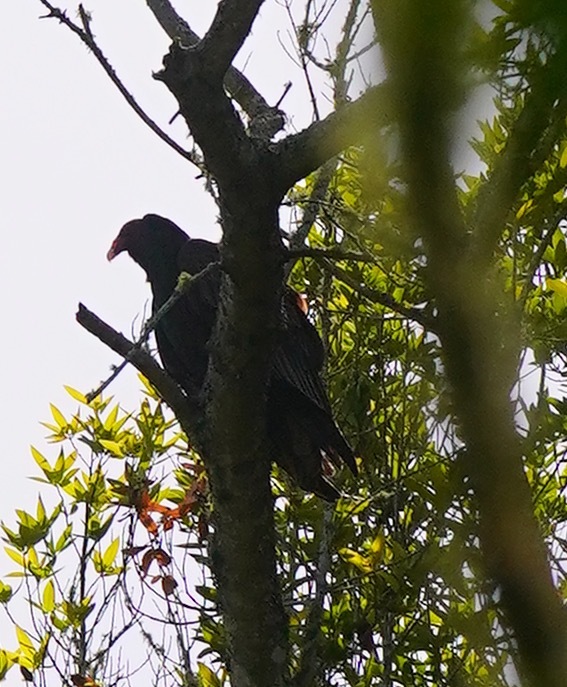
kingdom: Animalia
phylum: Chordata
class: Aves
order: Accipitriformes
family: Cathartidae
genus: Cathartes
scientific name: Cathartes aura
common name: Turkey vulture
